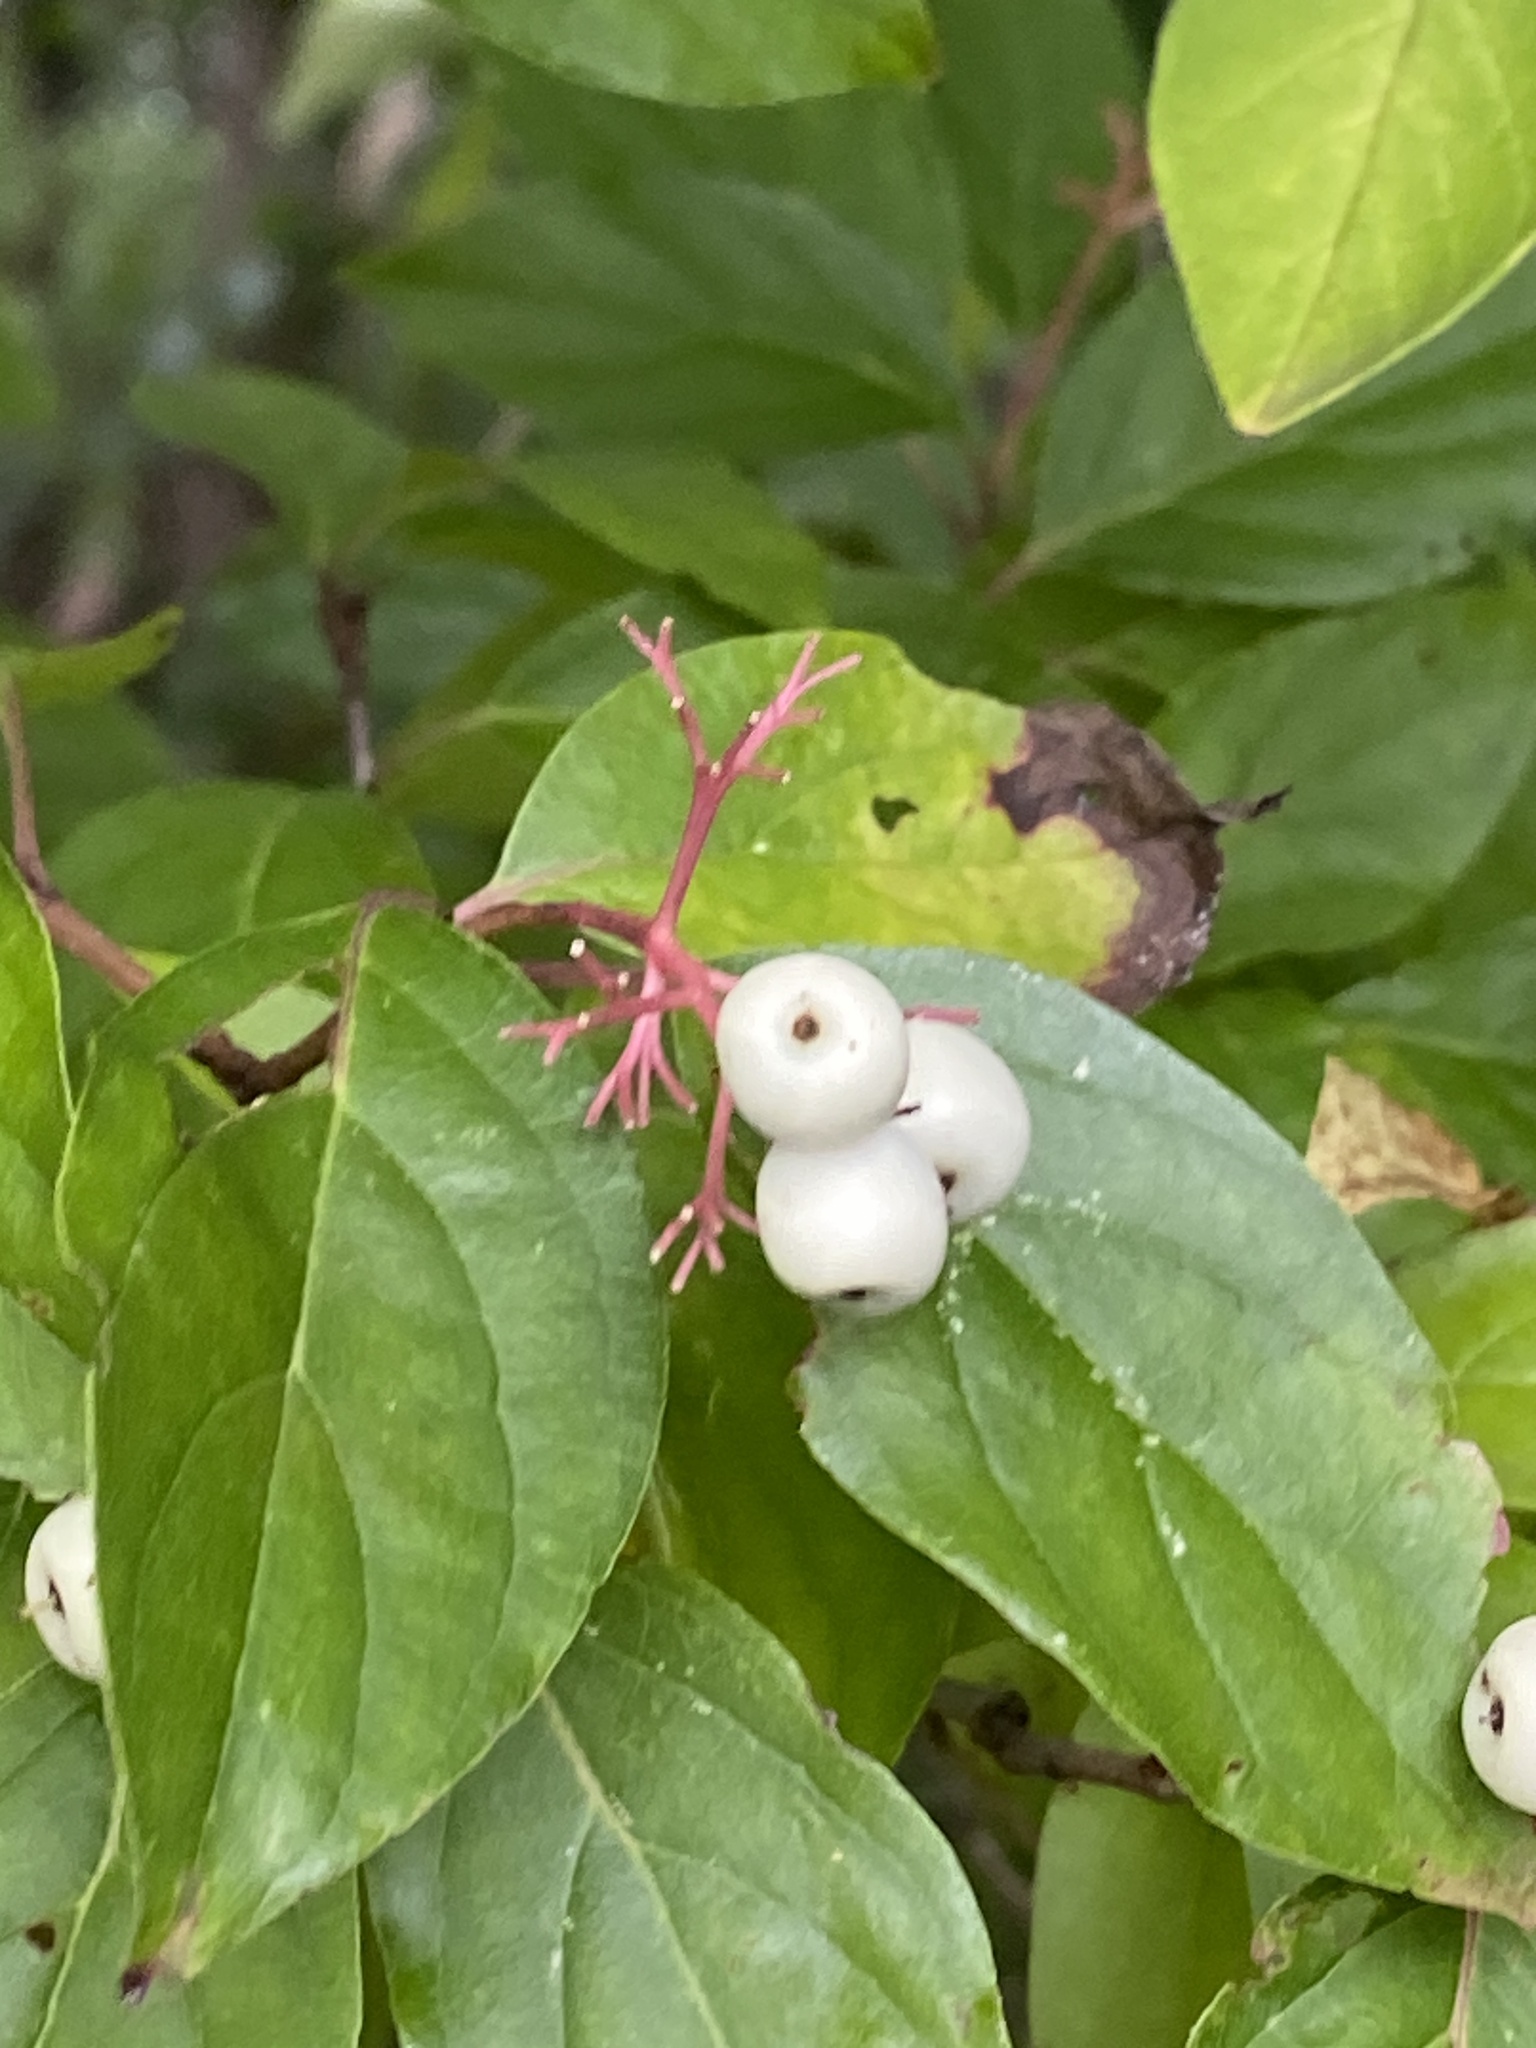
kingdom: Plantae
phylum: Tracheophyta
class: Magnoliopsida
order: Cornales
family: Cornaceae
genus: Cornus
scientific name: Cornus racemosa
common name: Panicled dogwood
